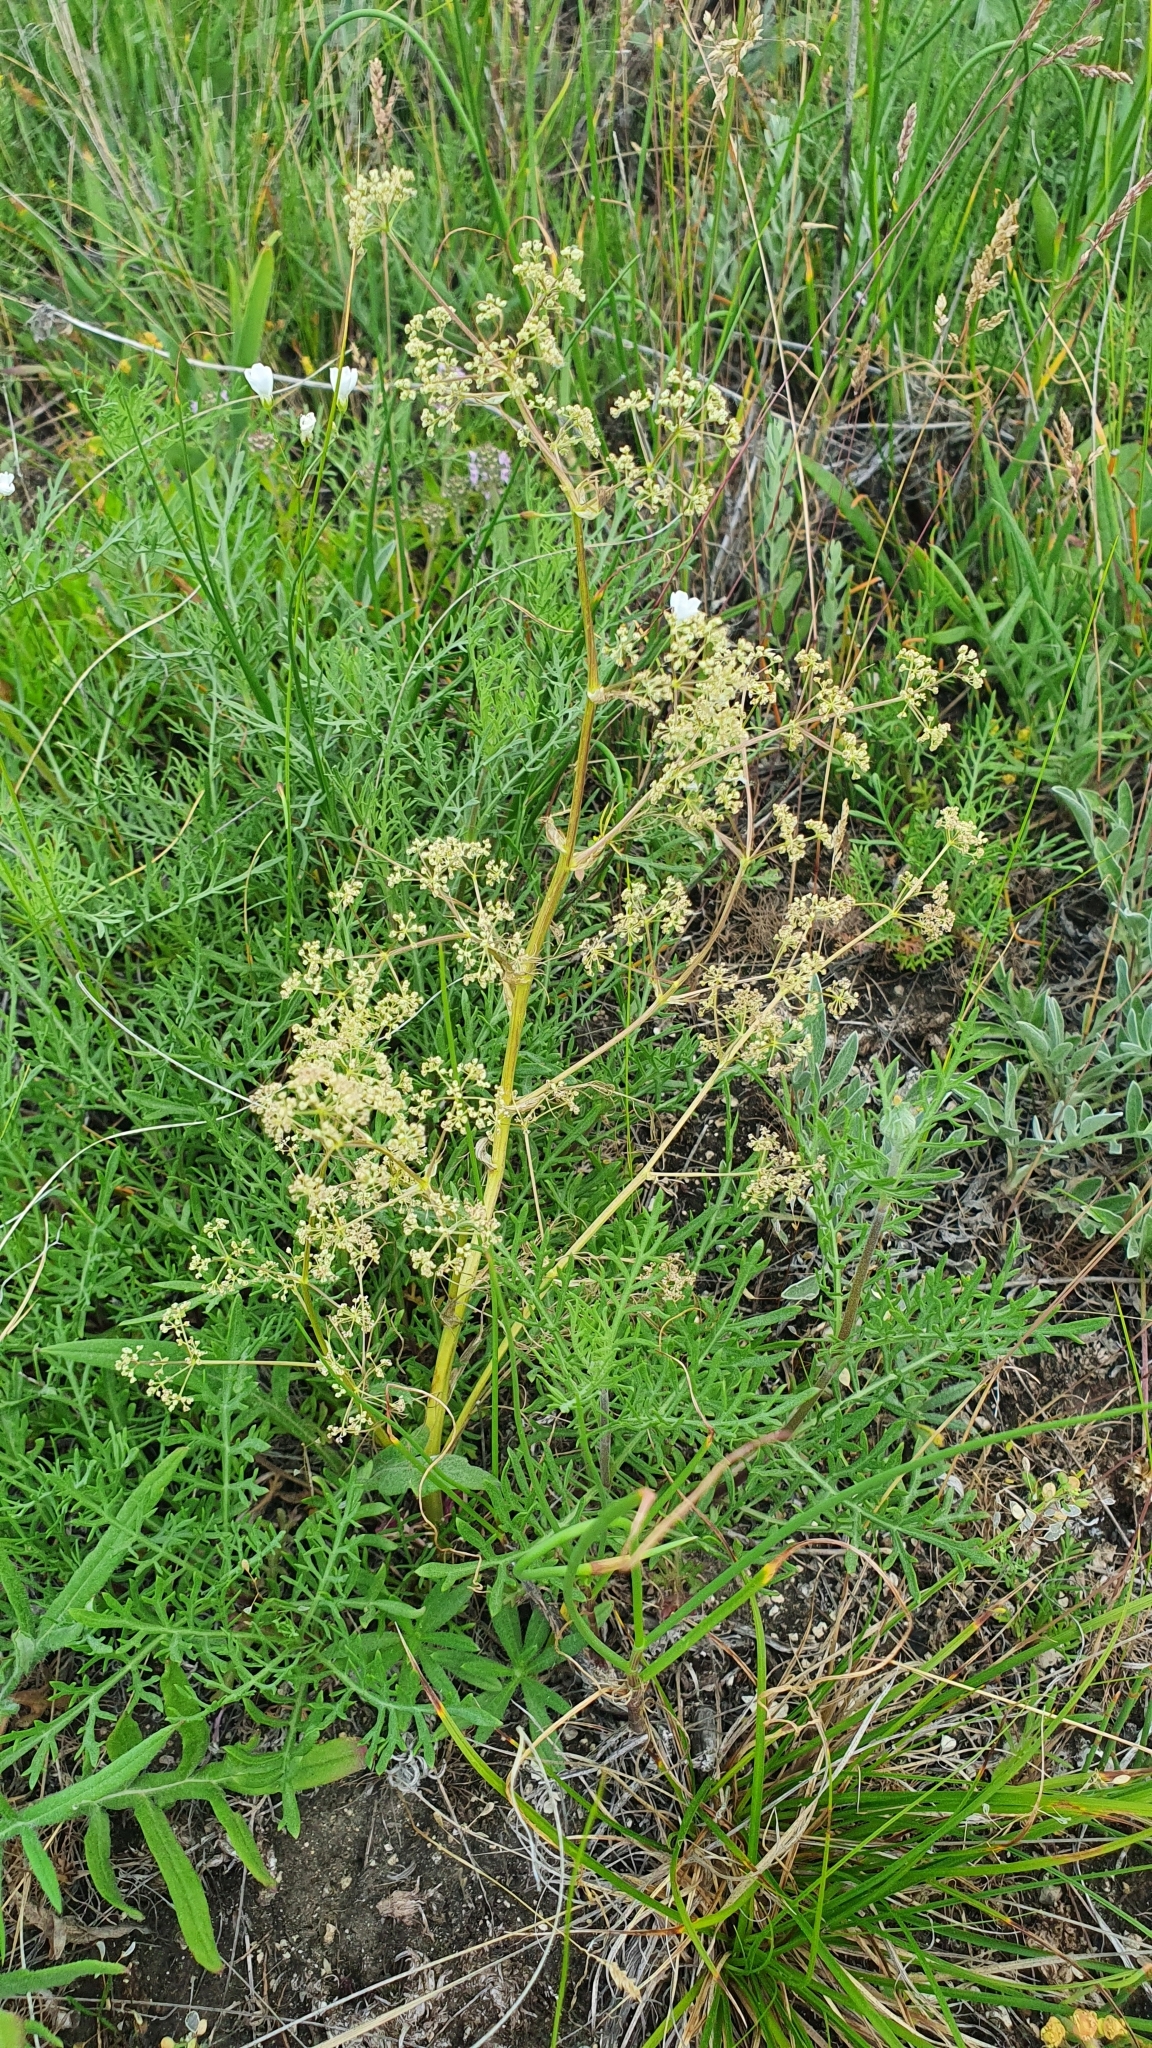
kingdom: Plantae
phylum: Tracheophyta
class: Magnoliopsida
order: Apiales
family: Apiaceae
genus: Trinia
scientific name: Trinia multicaulis
